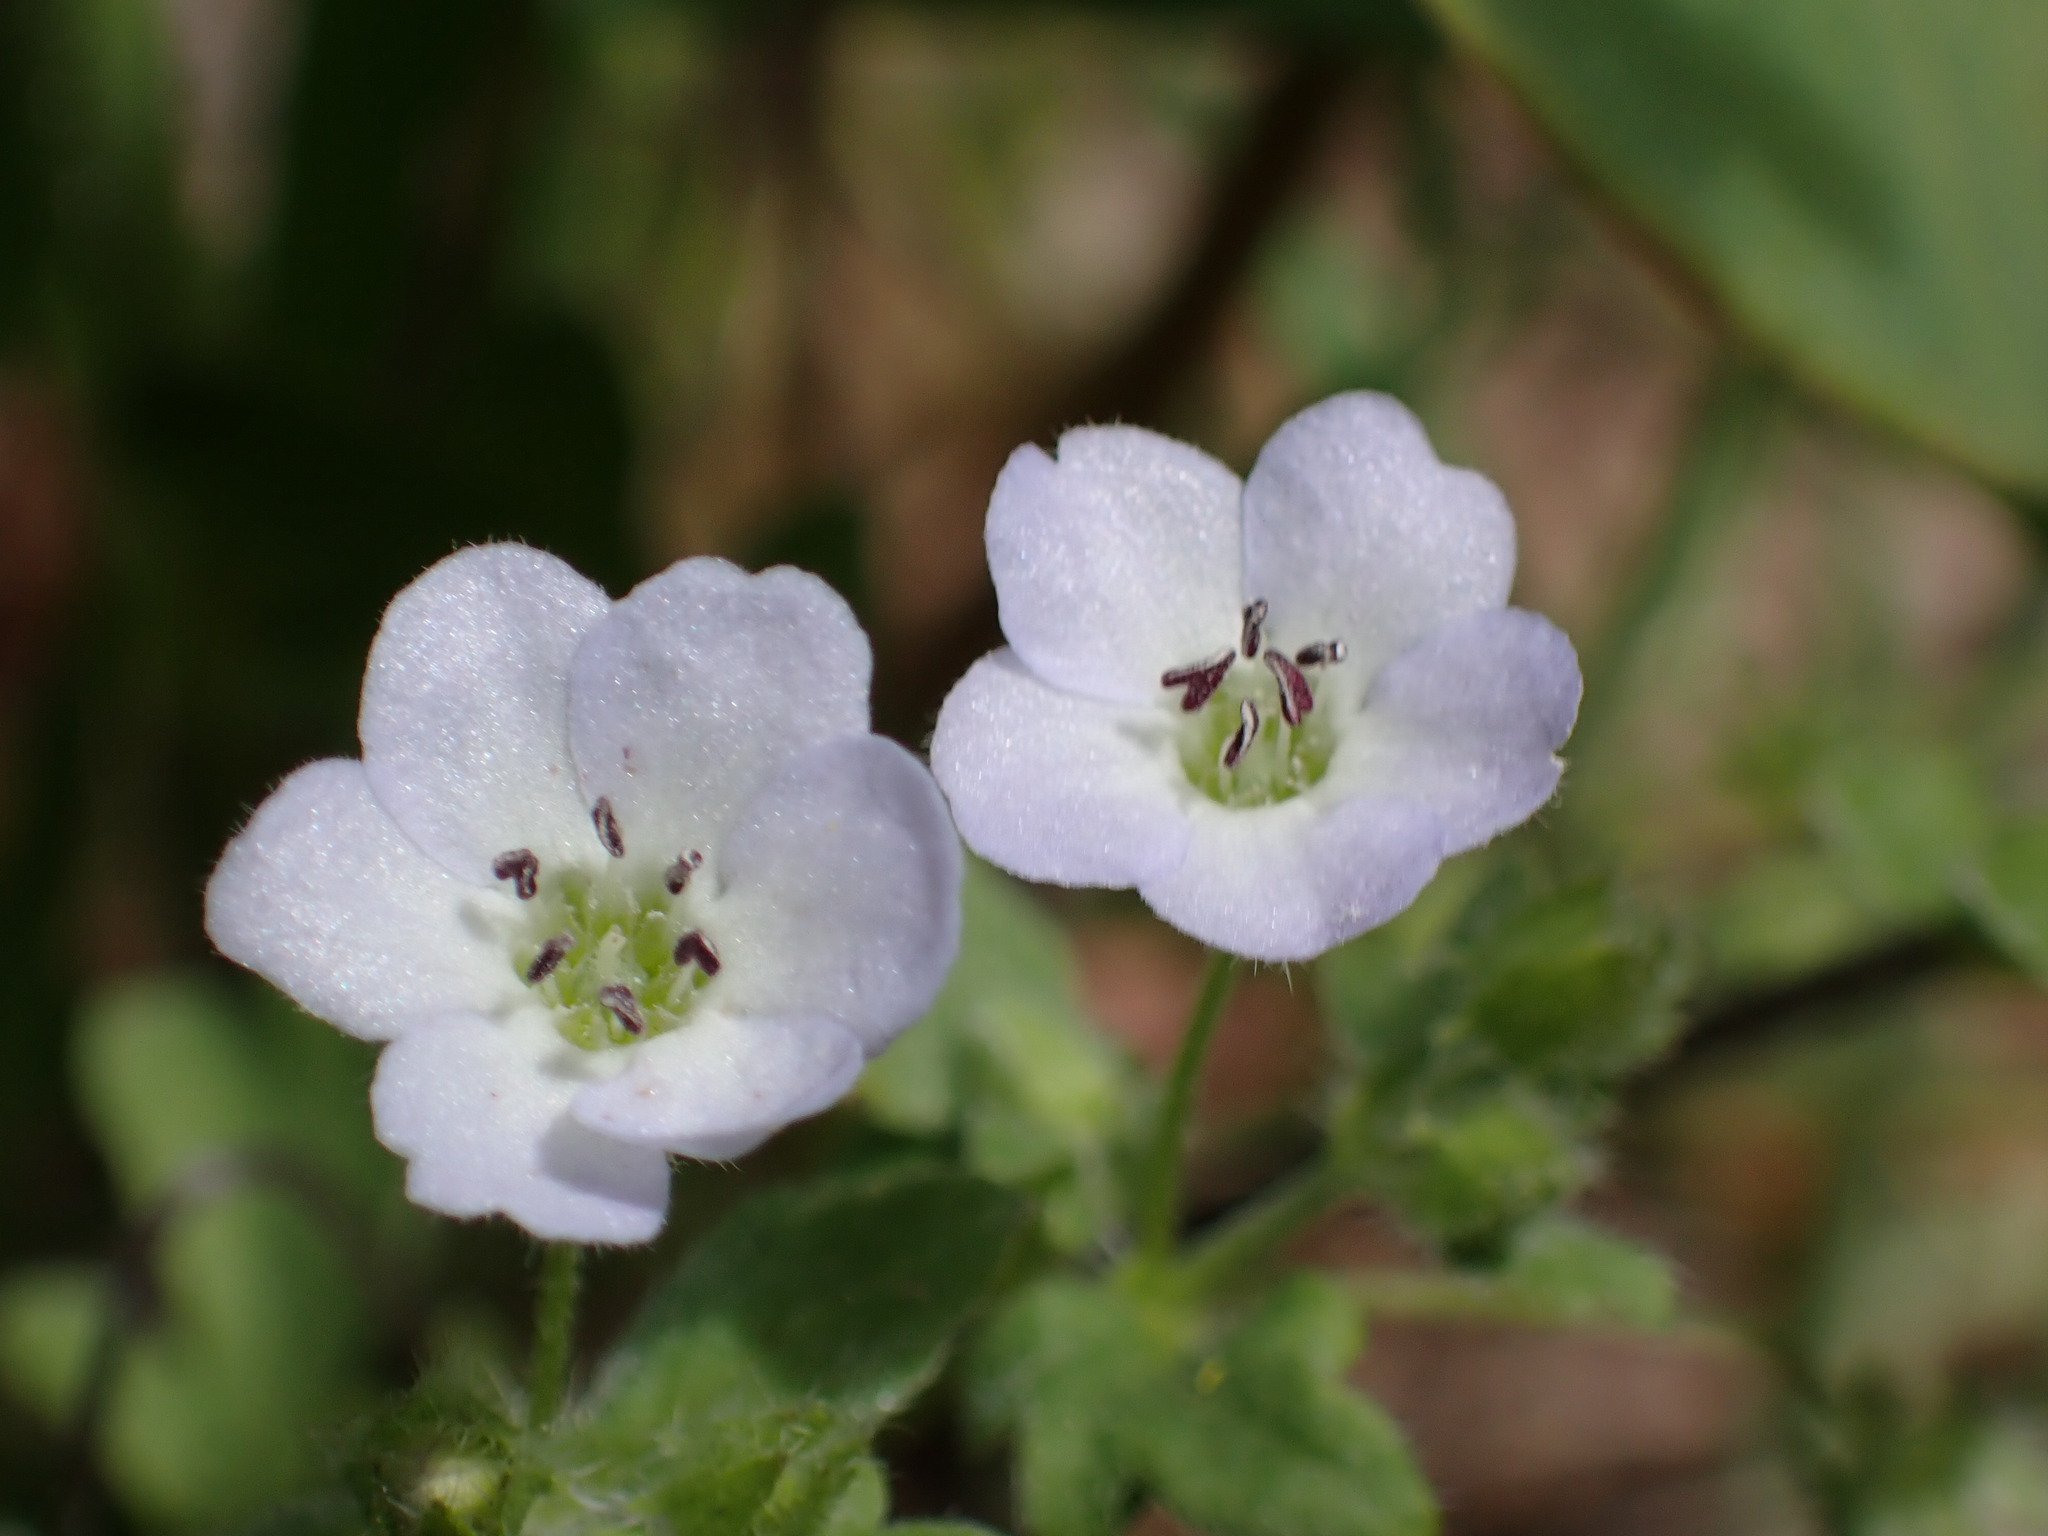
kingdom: Plantae
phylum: Tracheophyta
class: Magnoliopsida
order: Boraginales
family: Hydrophyllaceae
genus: Nemophila
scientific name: Nemophila heterophylla
